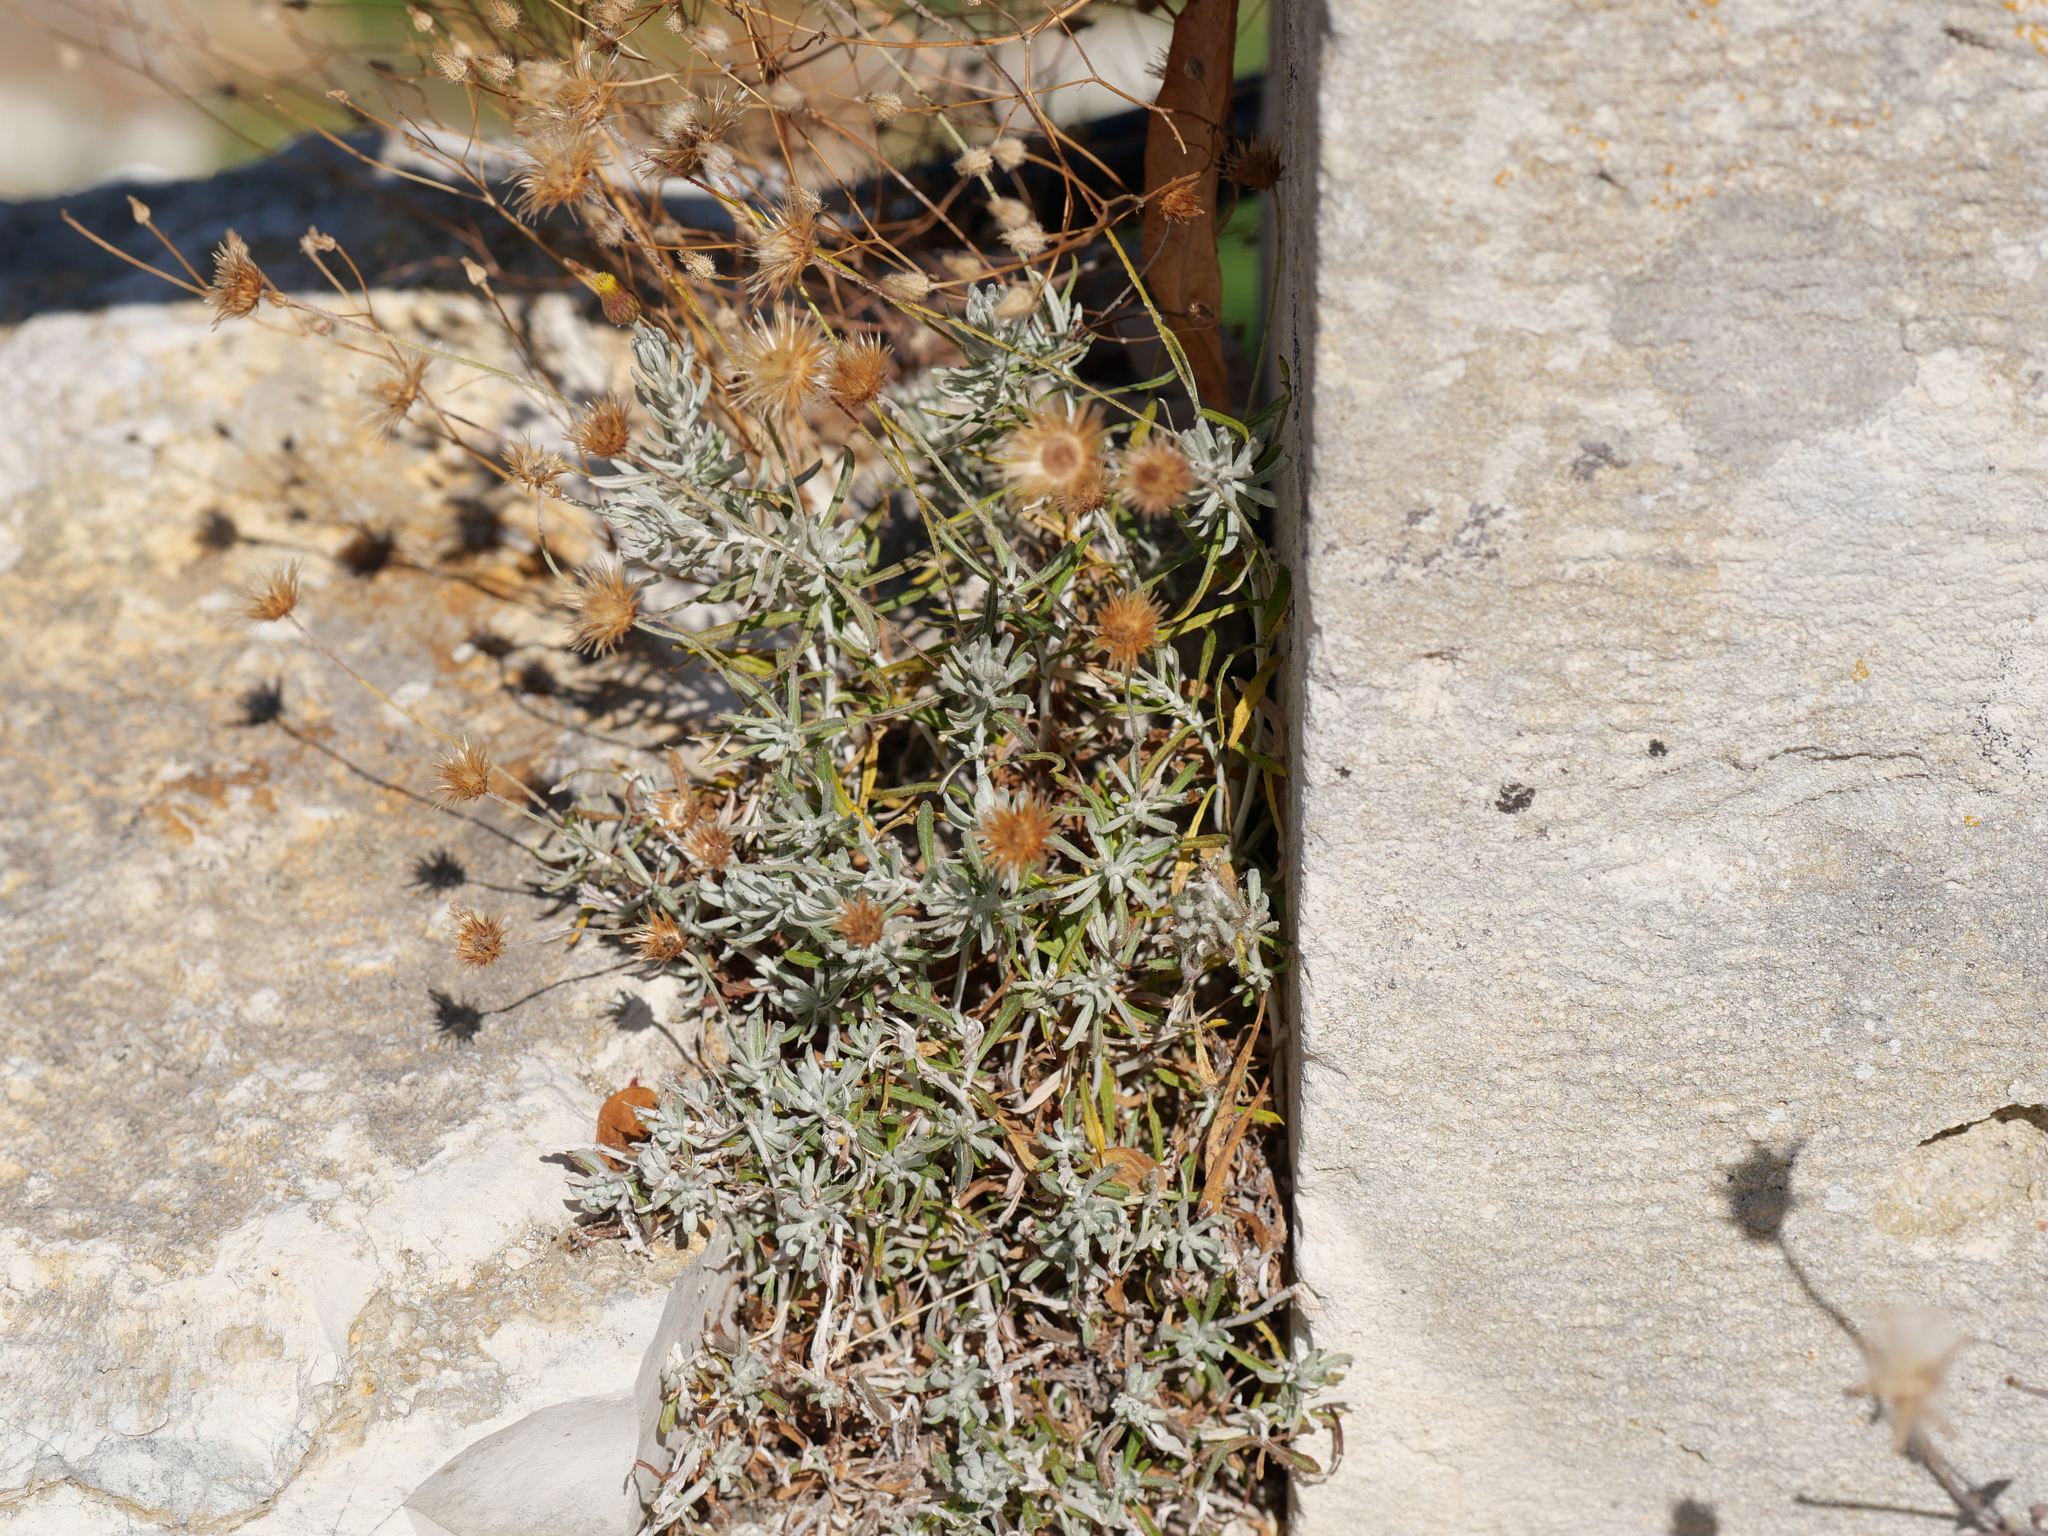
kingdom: Plantae
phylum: Tracheophyta
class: Magnoliopsida
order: Asterales
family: Asteraceae
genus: Phagnalon
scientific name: Phagnalon graecum
